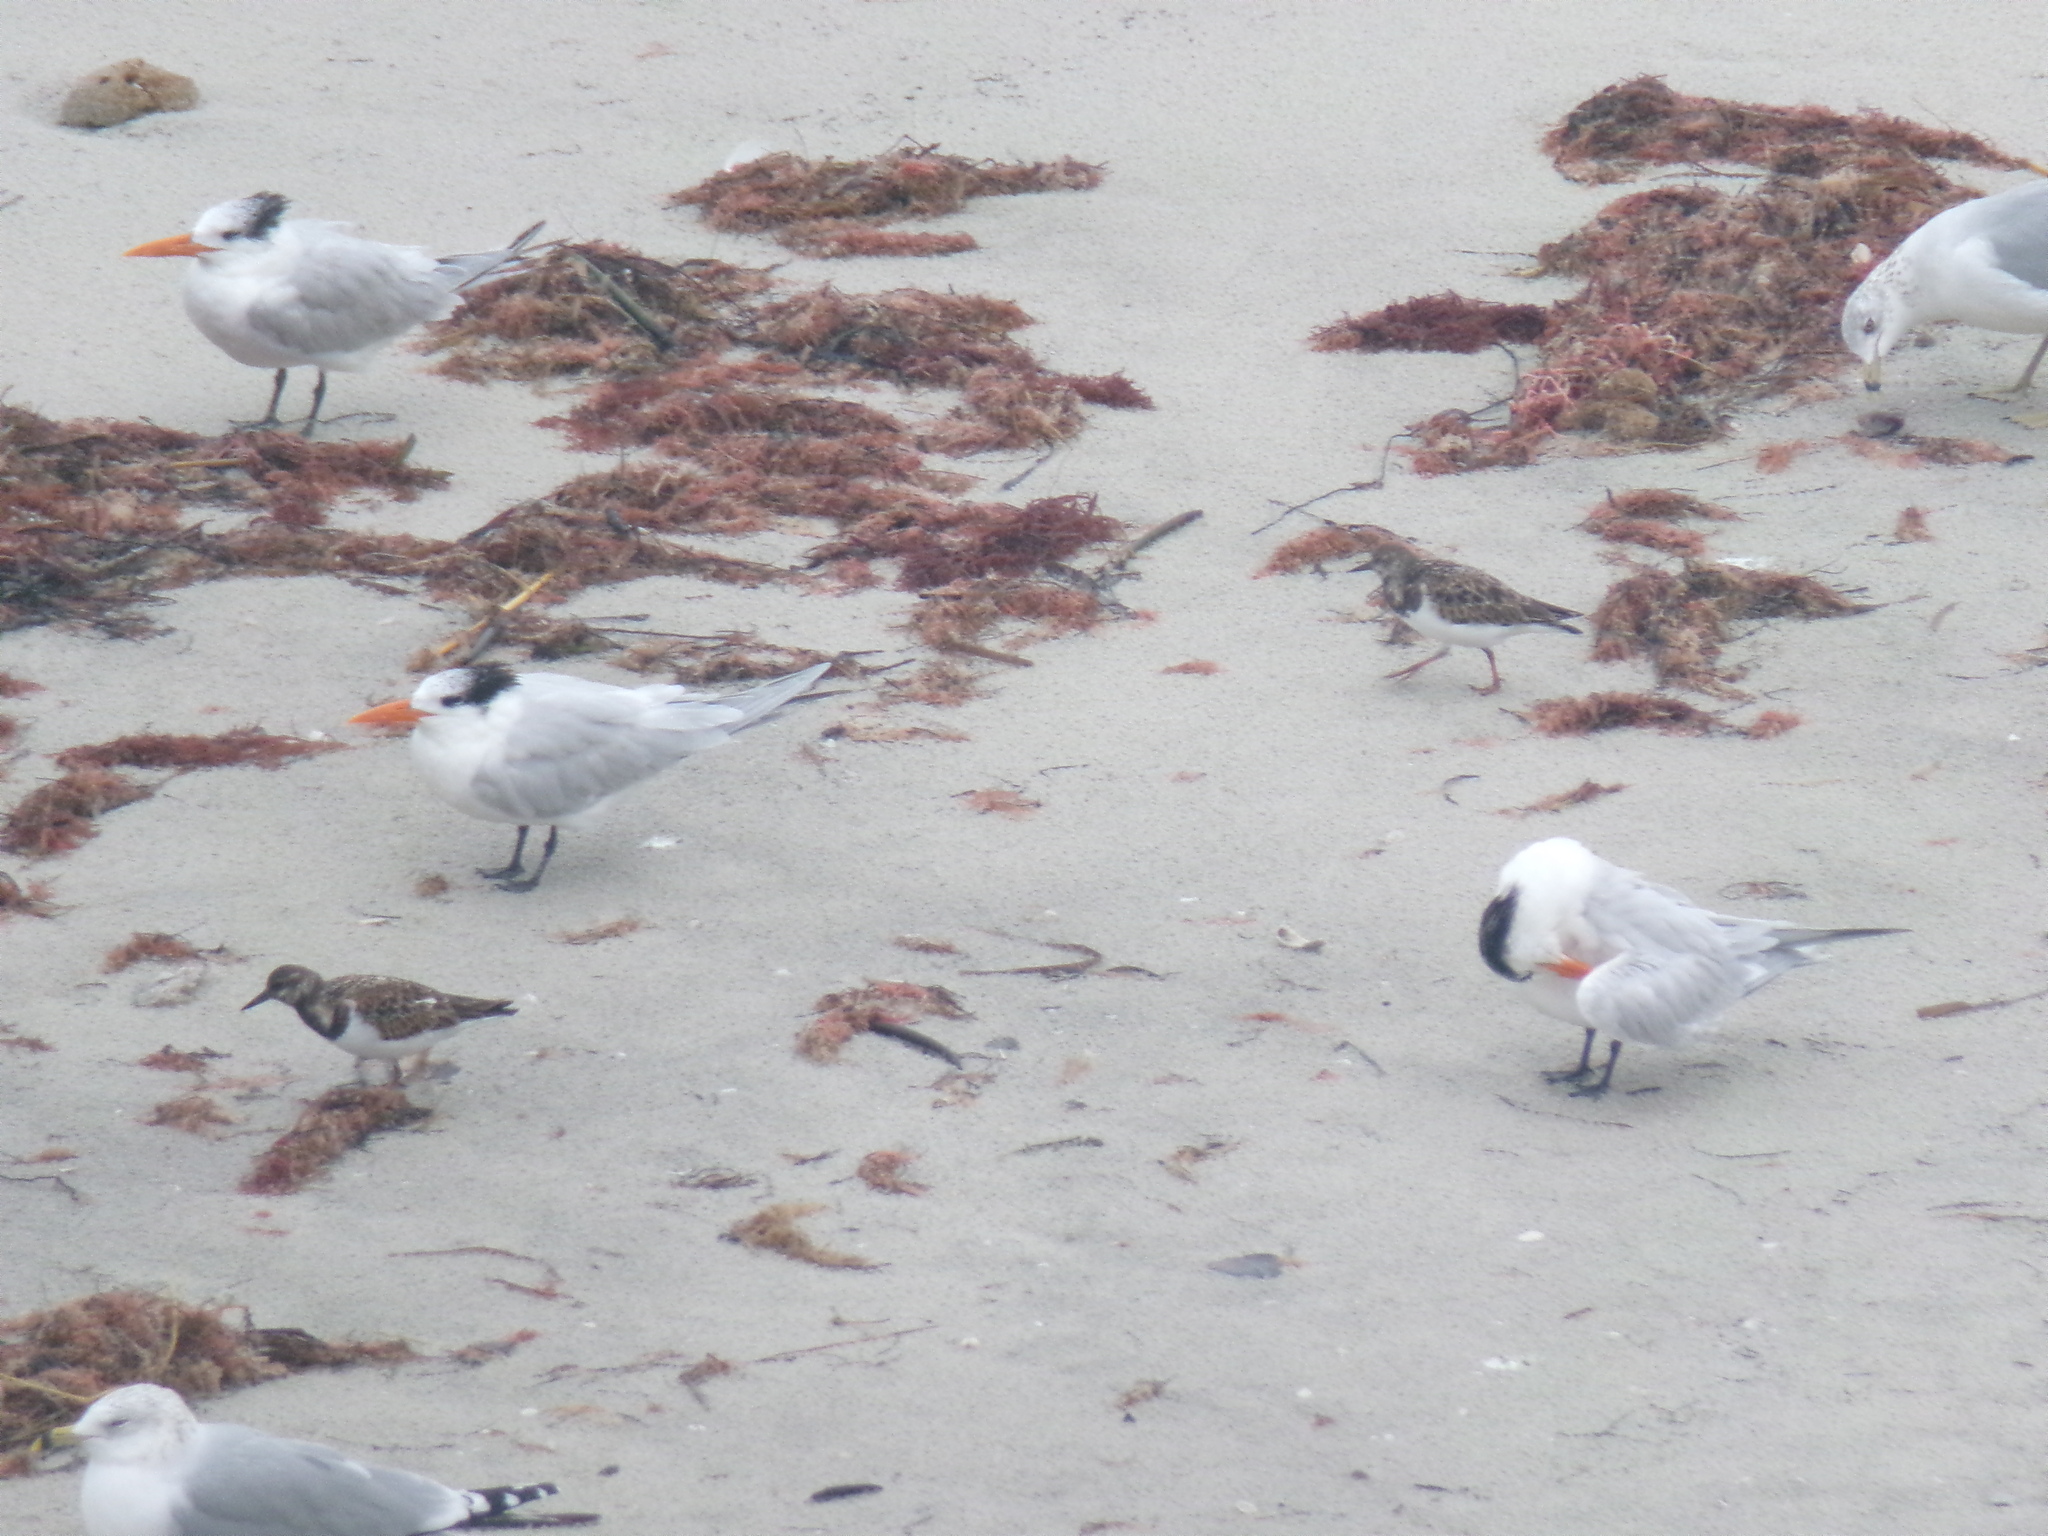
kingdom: Animalia
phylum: Chordata
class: Aves
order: Charadriiformes
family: Scolopacidae
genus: Arenaria
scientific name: Arenaria interpres
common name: Ruddy turnstone
